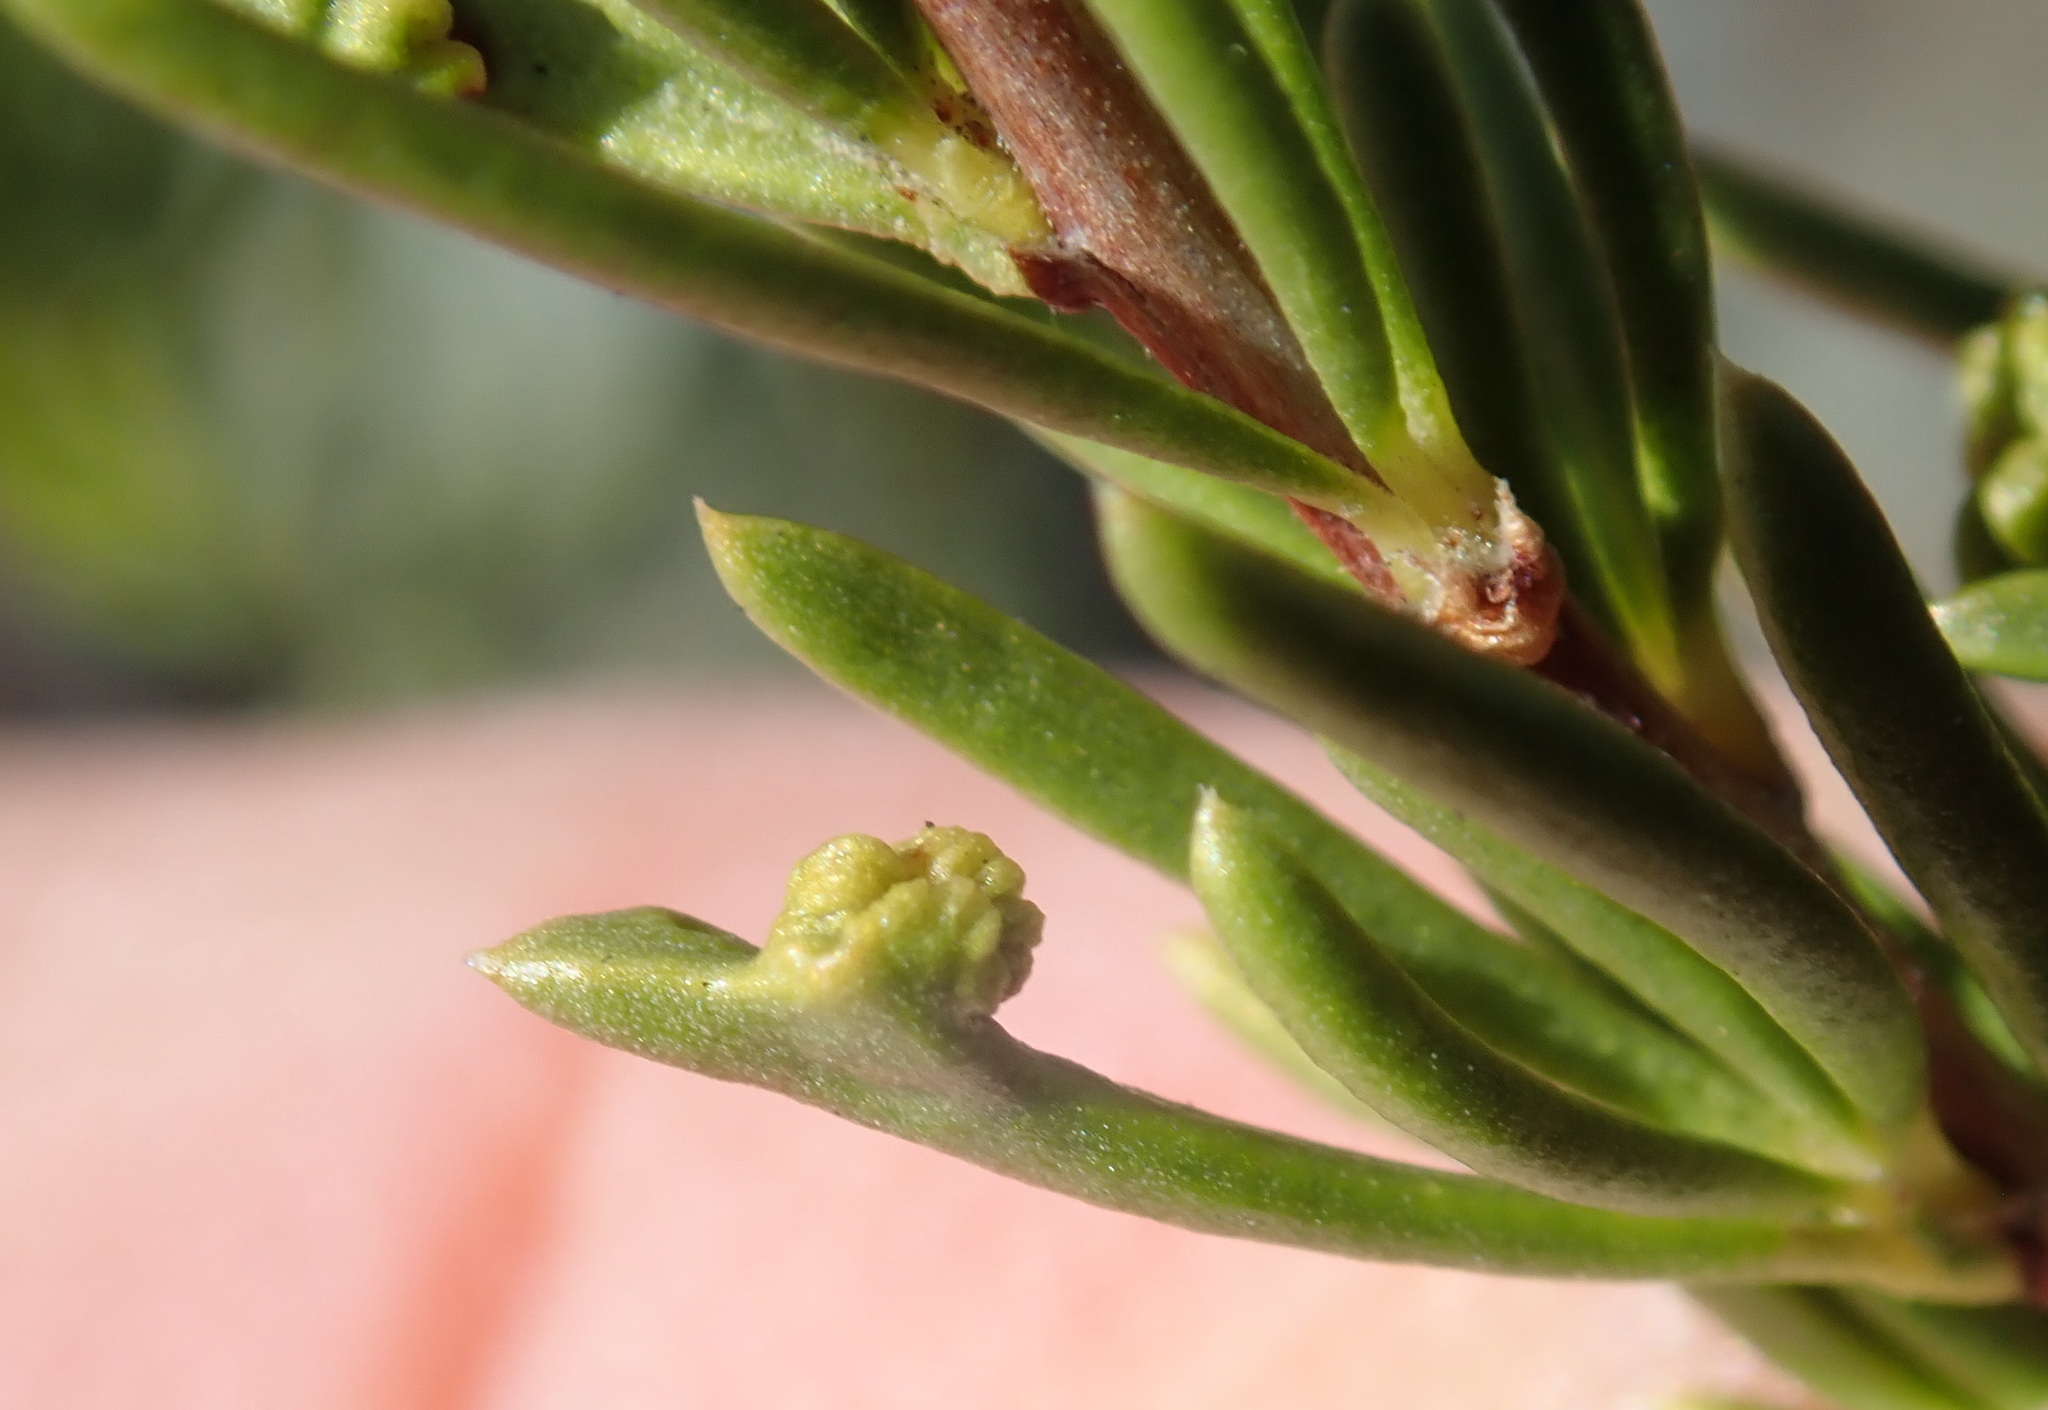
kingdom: Animalia
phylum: Arthropoda
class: Arachnida
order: Trombidiformes
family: Eriophyidae
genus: Eriophyes
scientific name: Eriophyes
